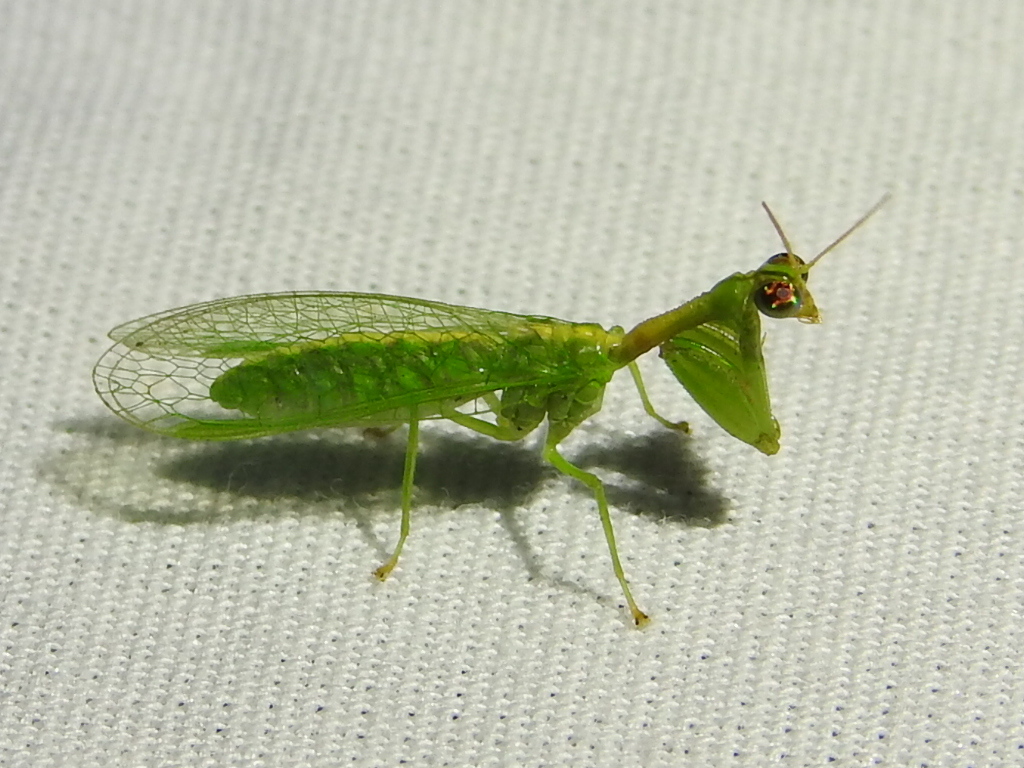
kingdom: Animalia
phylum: Arthropoda
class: Insecta
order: Neuroptera
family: Mantispidae
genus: Zeugomantispa
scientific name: Zeugomantispa minuta
